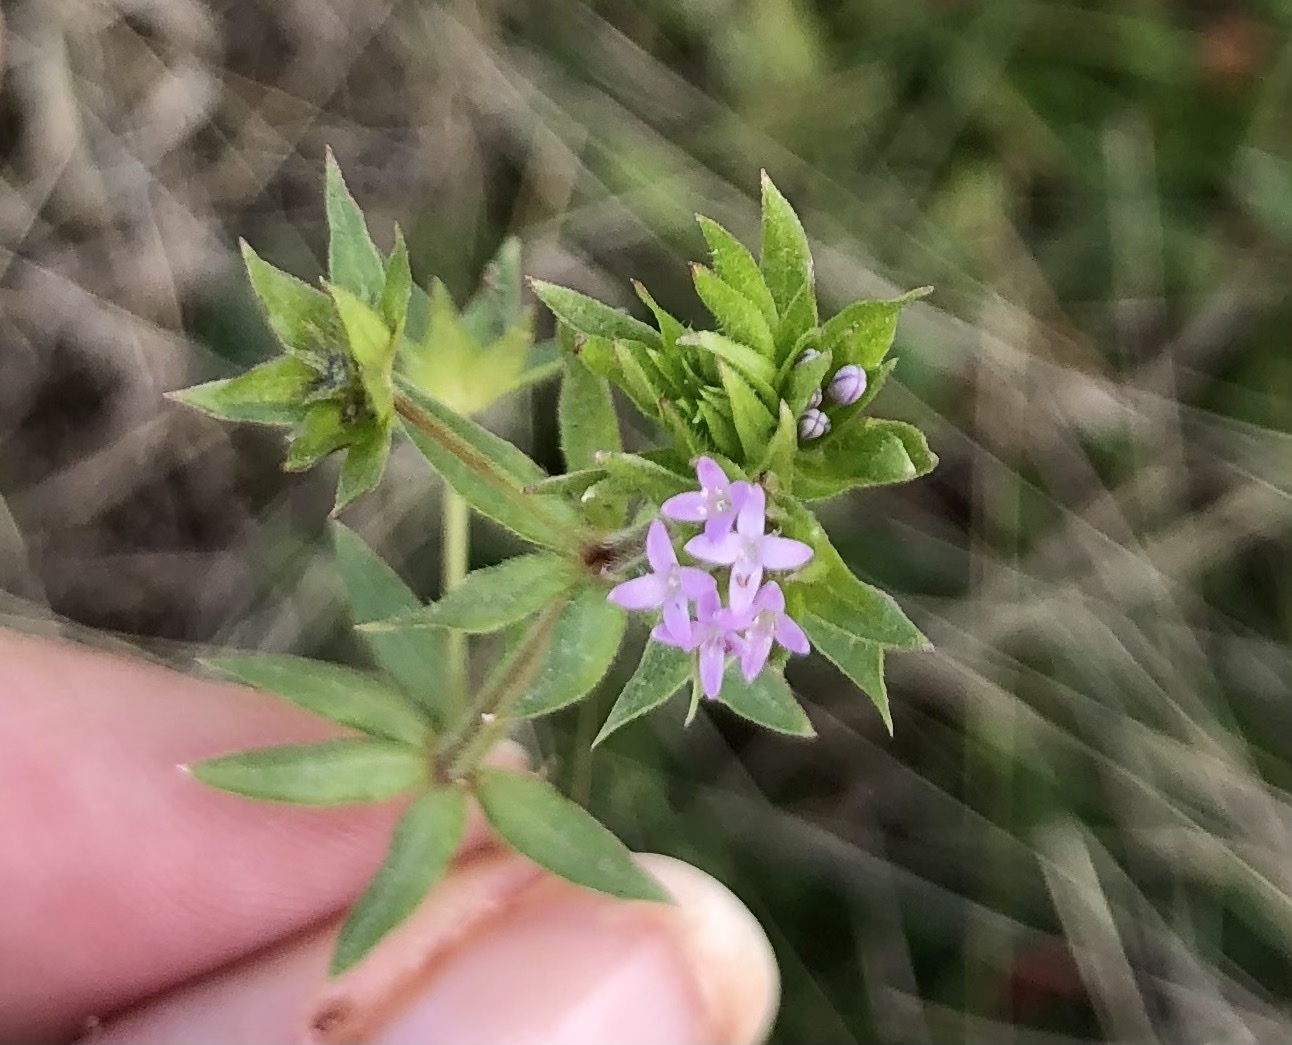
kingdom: Plantae
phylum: Tracheophyta
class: Magnoliopsida
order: Gentianales
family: Rubiaceae
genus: Sherardia
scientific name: Sherardia arvensis
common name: Field madder
